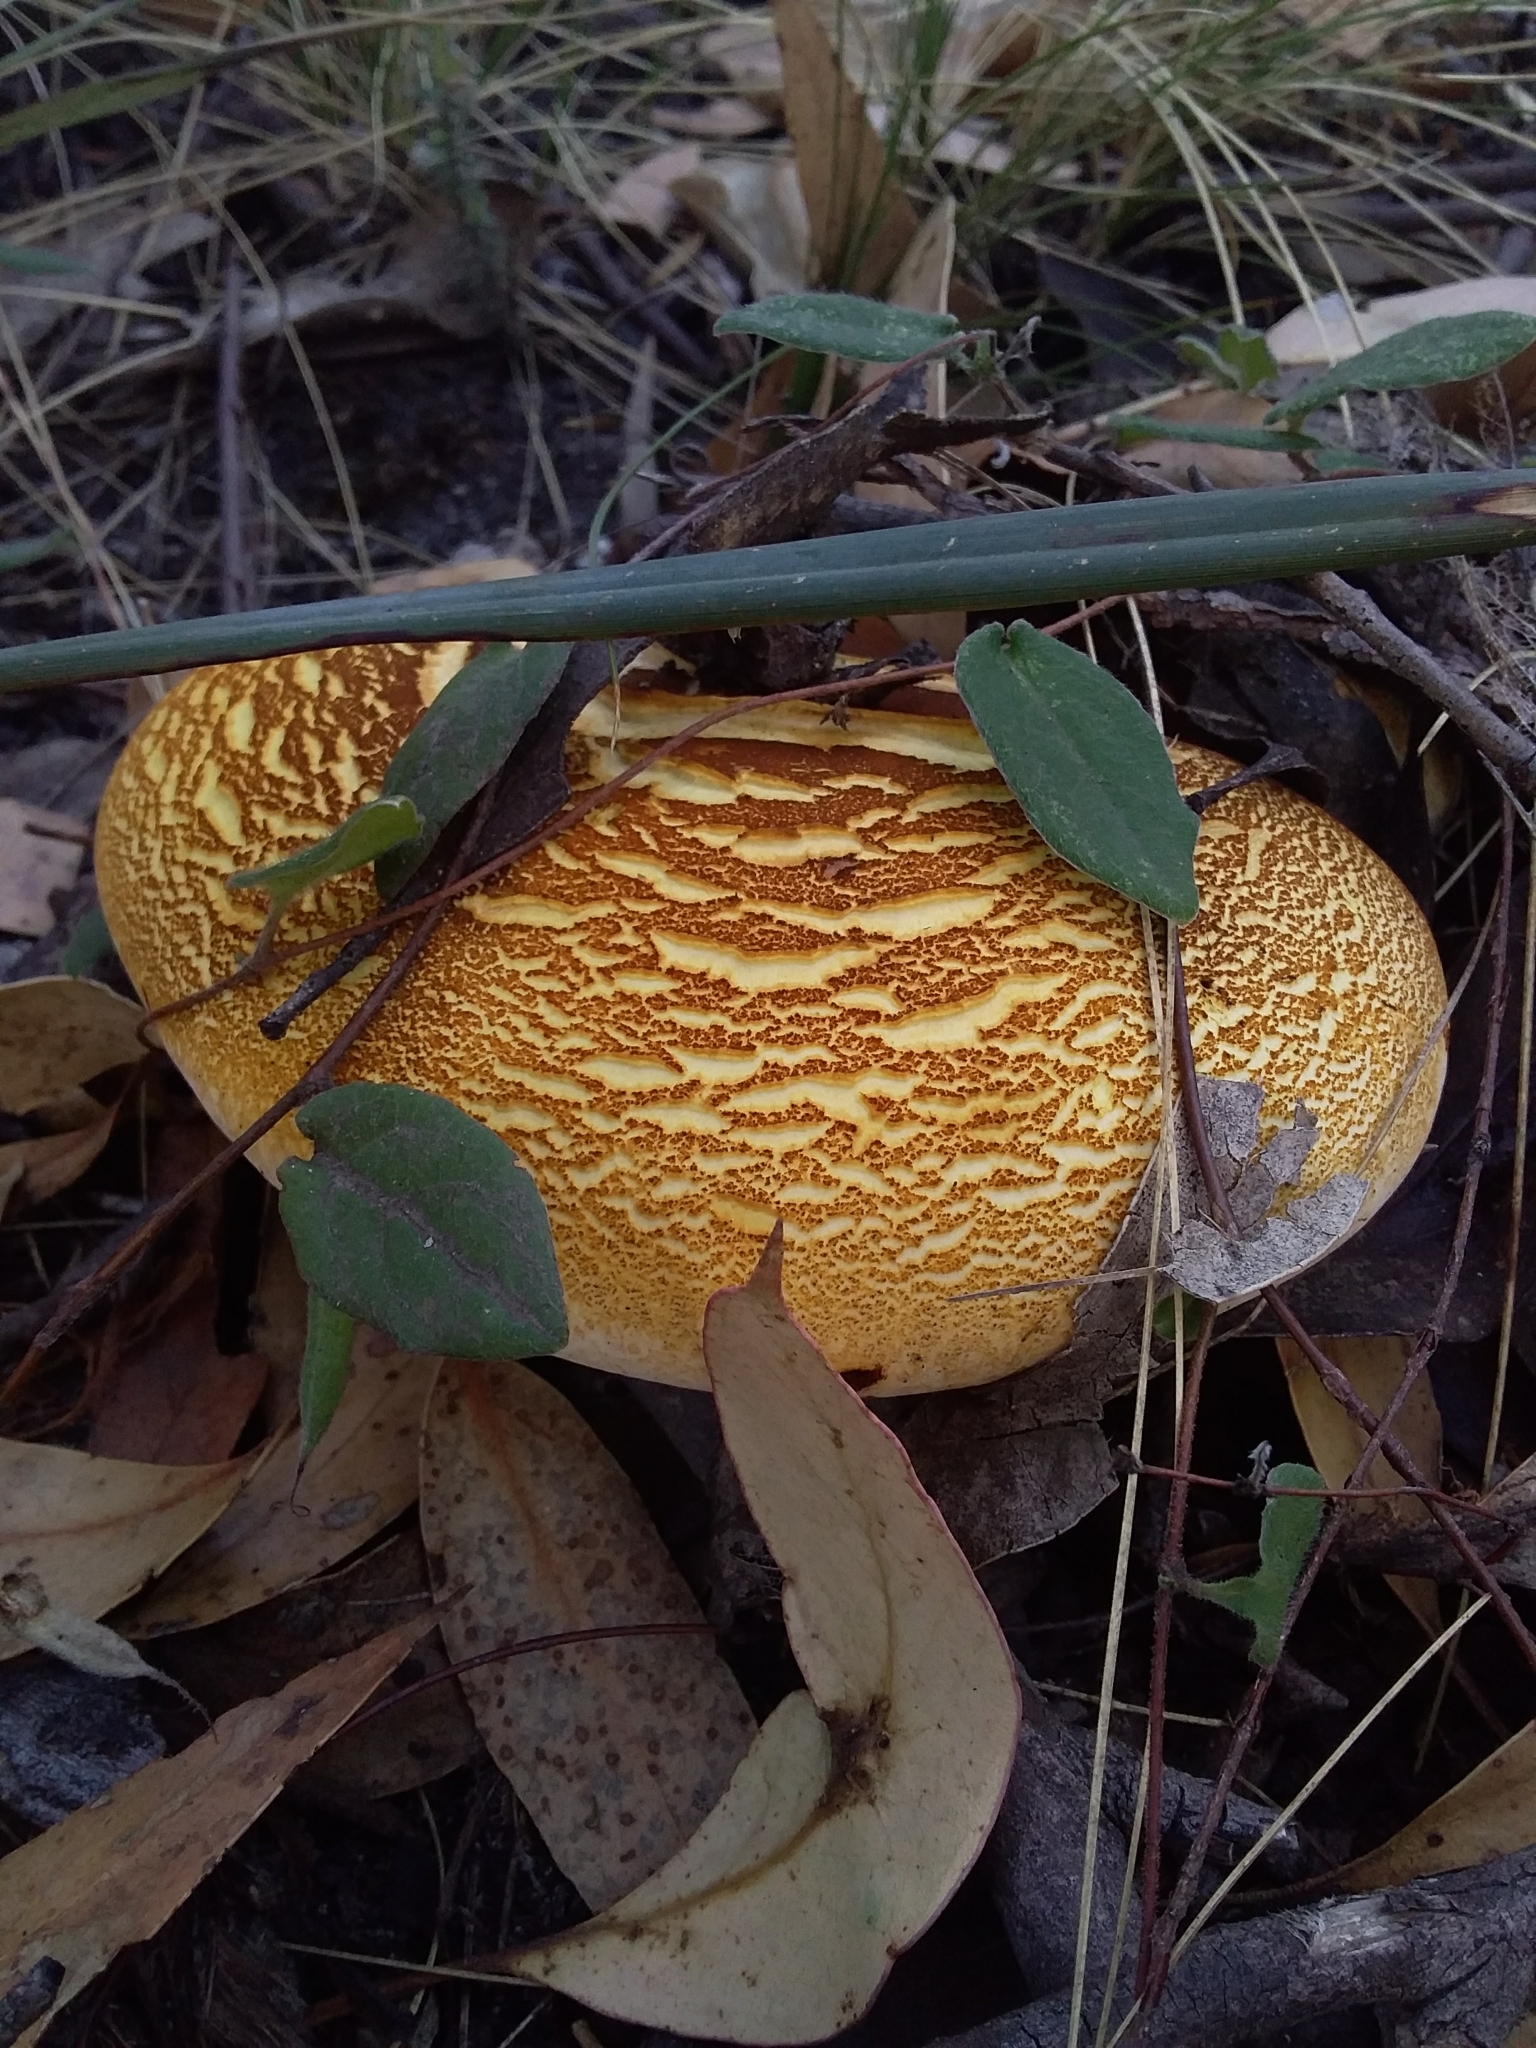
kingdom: Fungi
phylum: Basidiomycota
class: Agaricomycetes
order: Polyporales
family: Fomitopsidaceae
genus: Fomitopsis
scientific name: Fomitopsis
